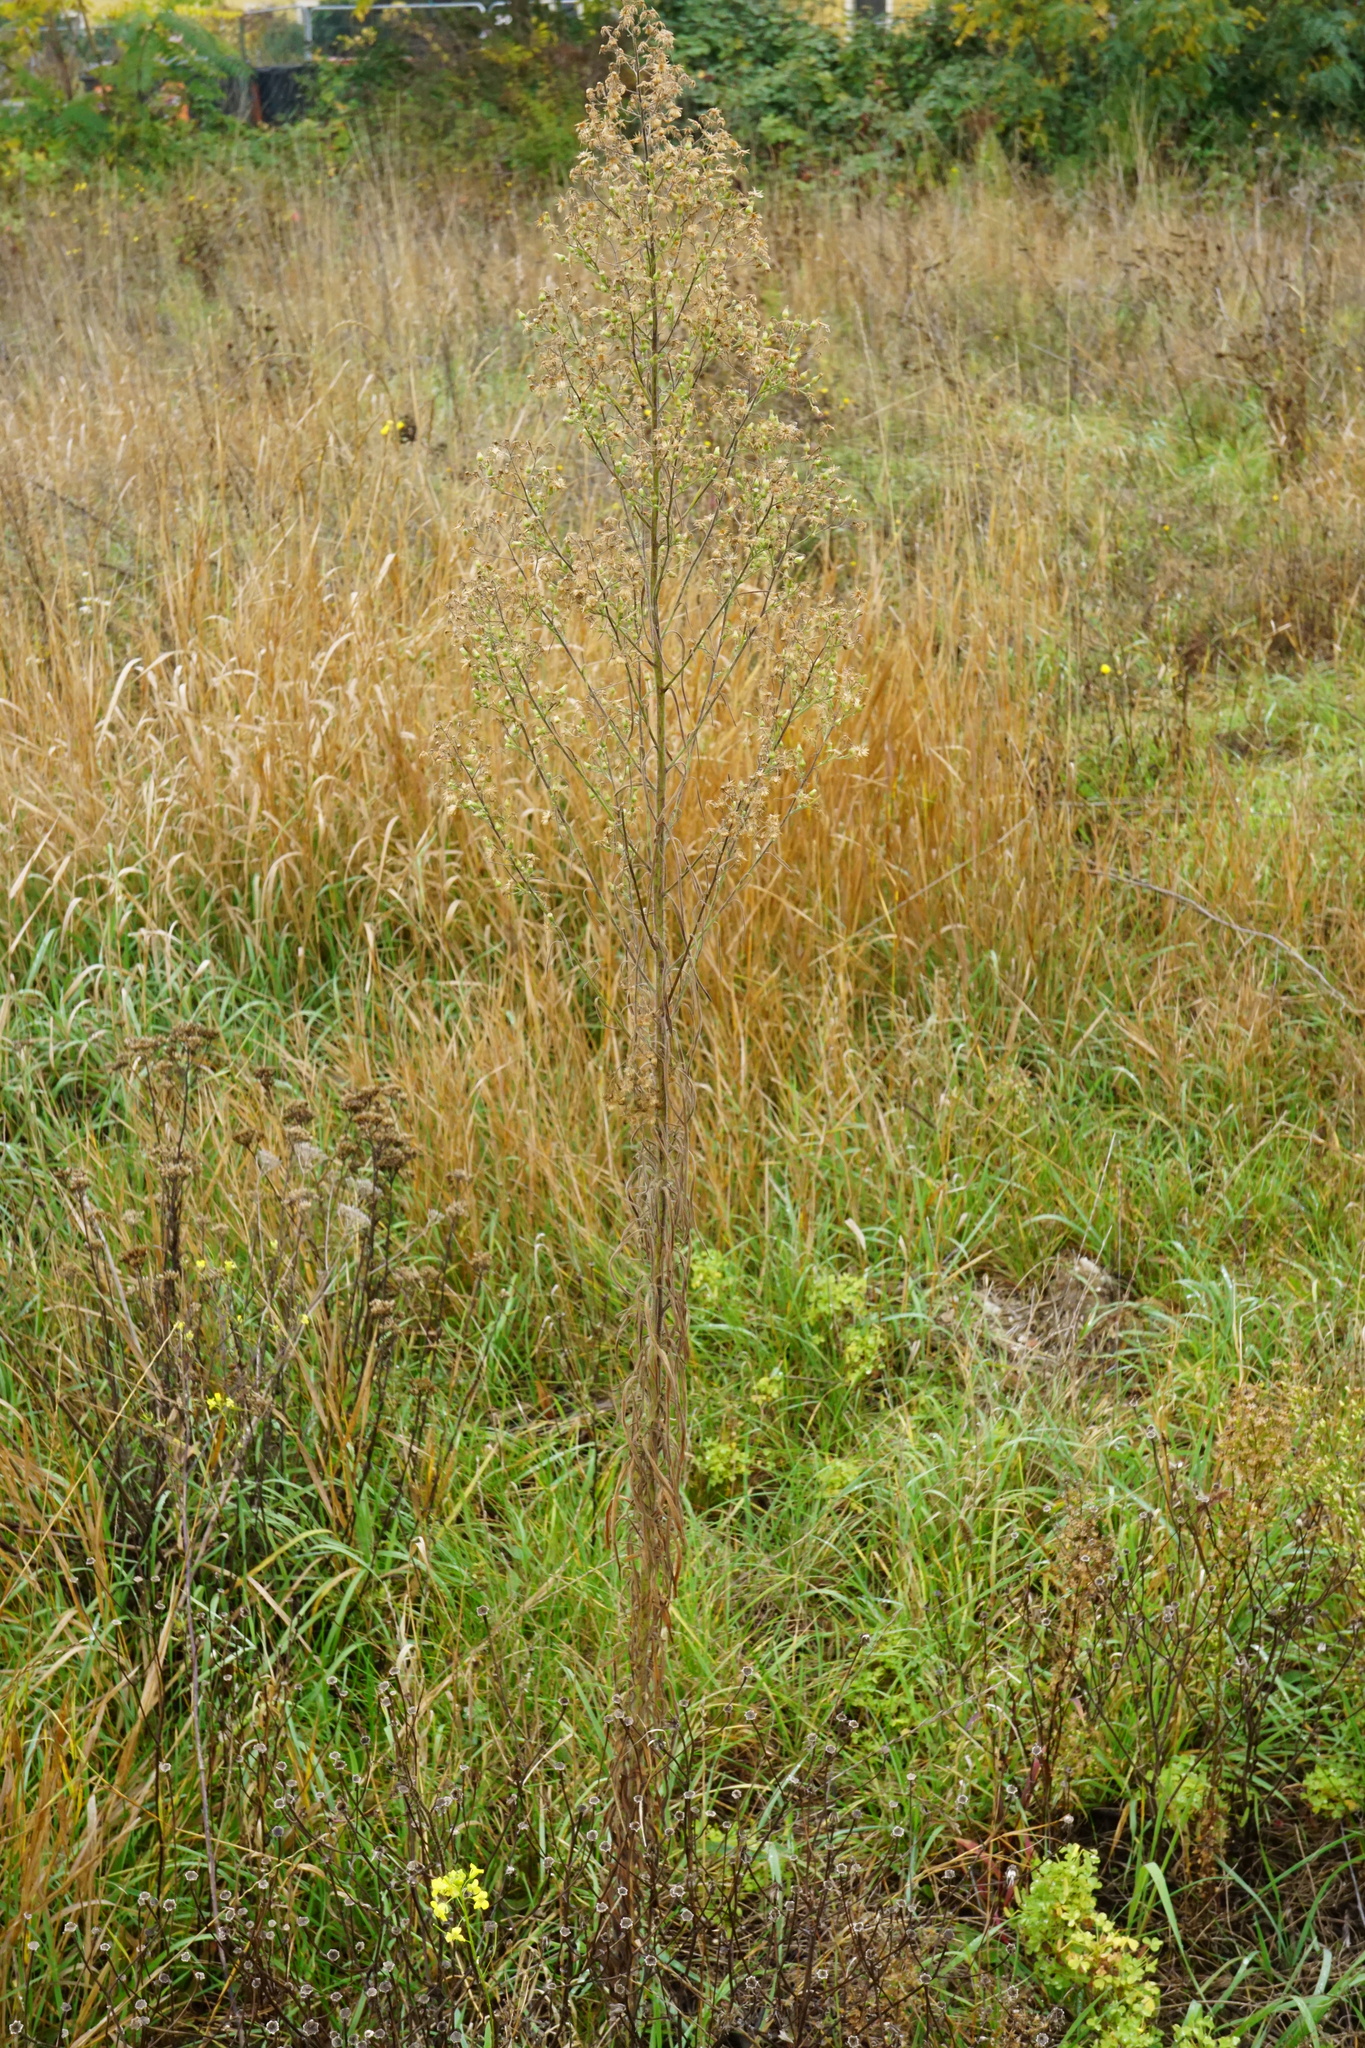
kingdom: Plantae
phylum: Tracheophyta
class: Magnoliopsida
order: Asterales
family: Asteraceae
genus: Erigeron
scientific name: Erigeron sumatrensis
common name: Daisy
